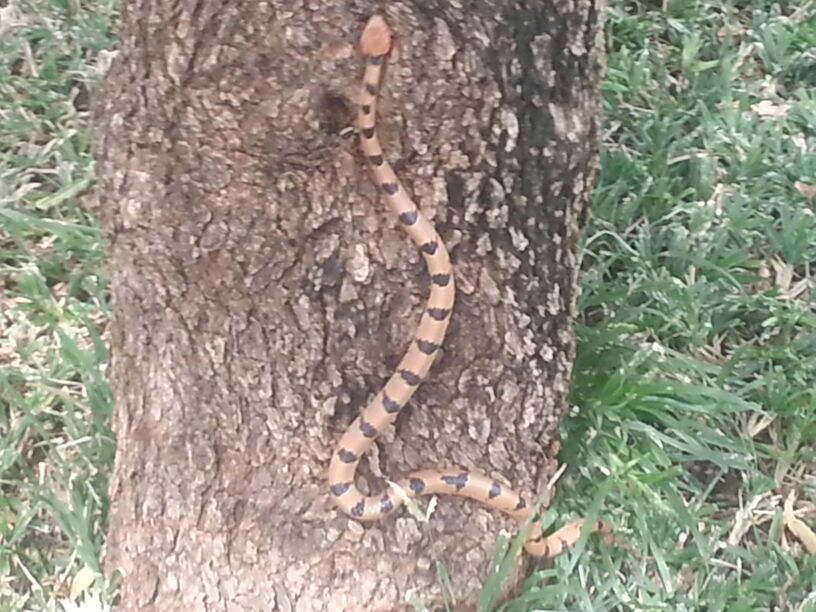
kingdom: Animalia
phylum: Chordata
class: Squamata
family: Colubridae
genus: Telescopus
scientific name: Telescopus semiannulatus
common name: Common tiger snake
